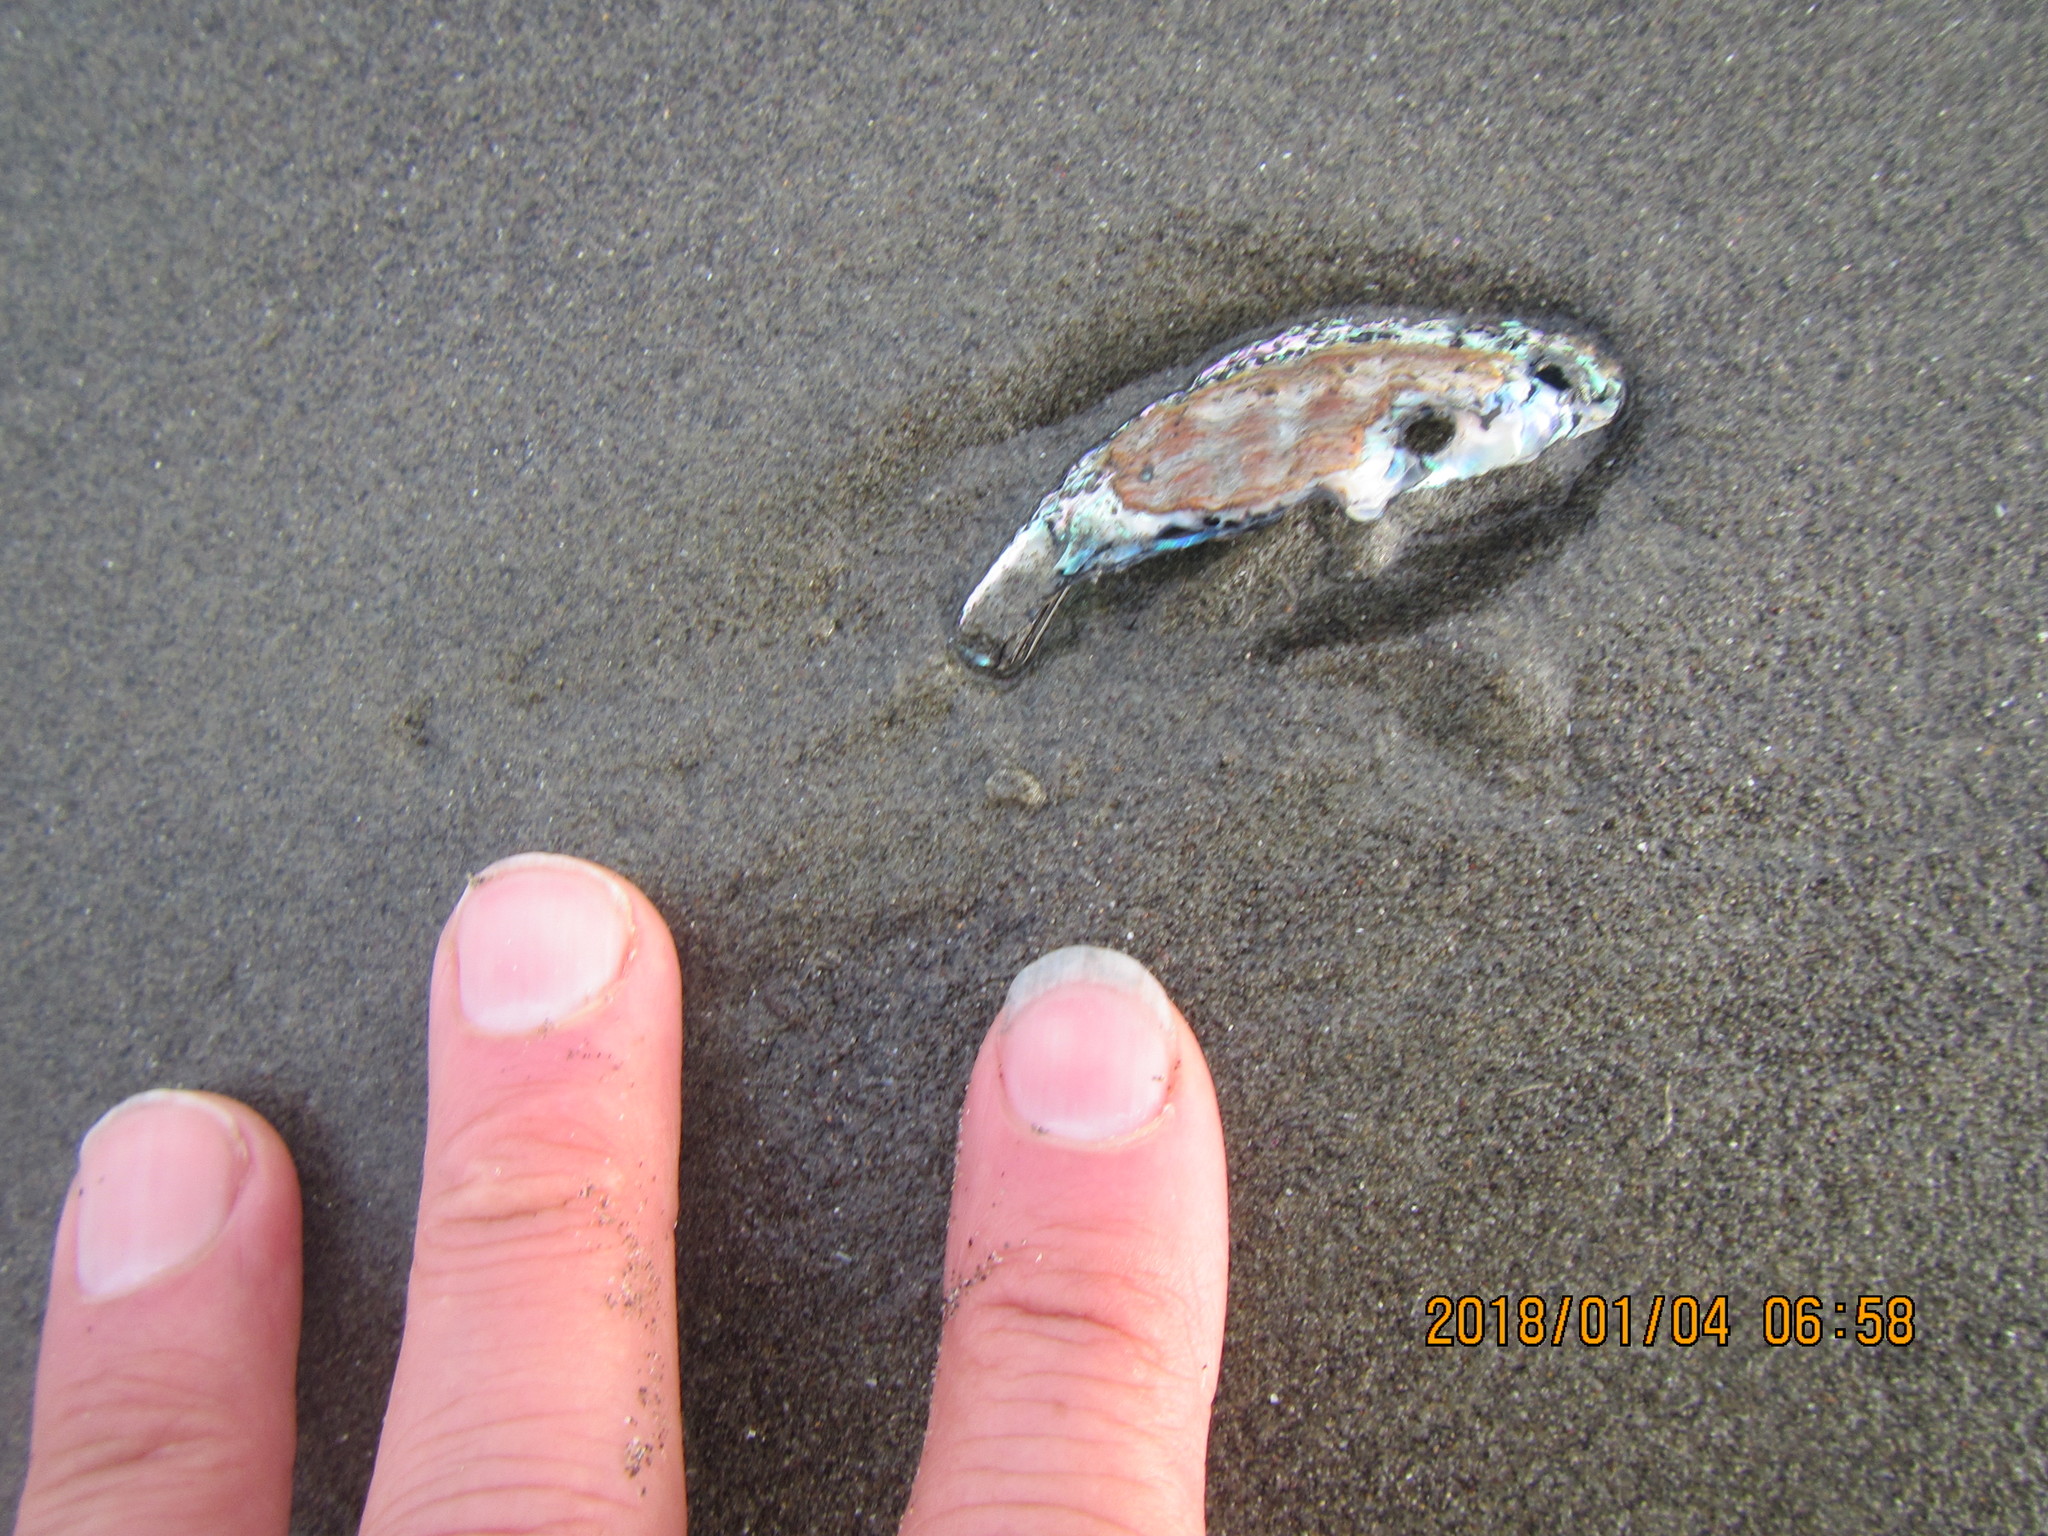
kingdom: Animalia
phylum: Mollusca
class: Gastropoda
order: Lepetellida
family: Haliotidae
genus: Haliotis
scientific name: Haliotis iris
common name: Abalone
